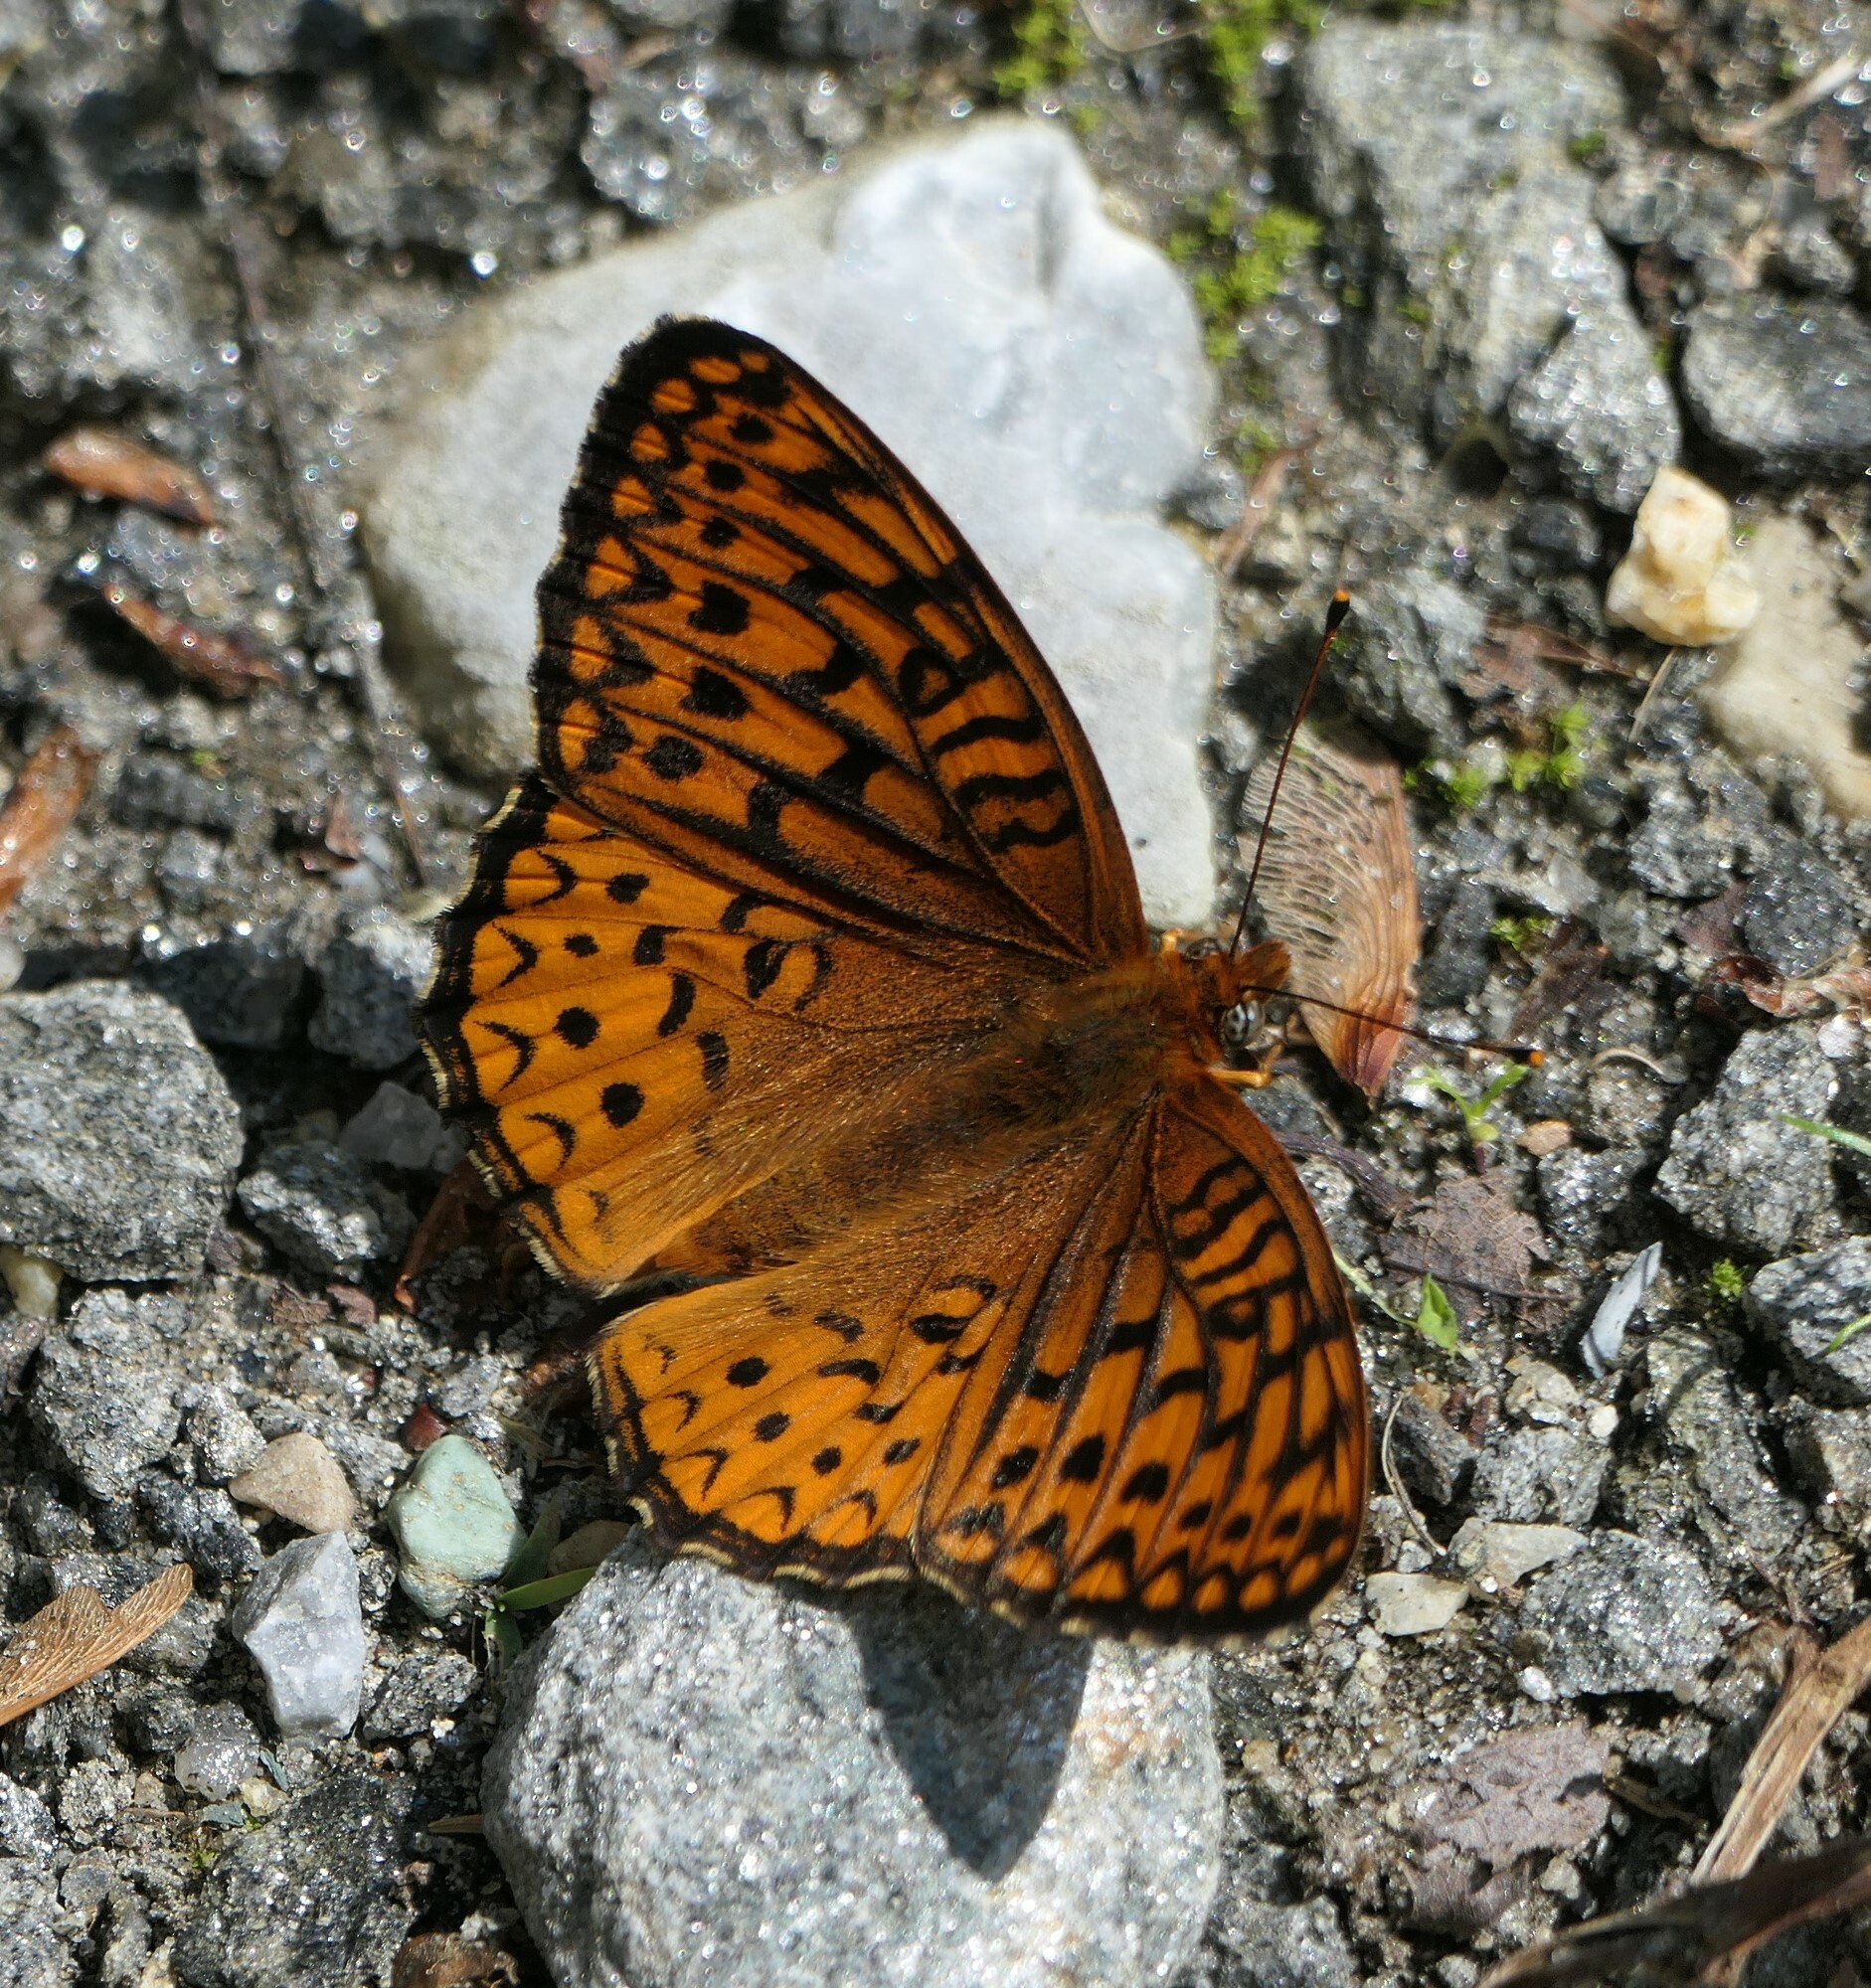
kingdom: Animalia
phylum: Arthropoda
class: Insecta
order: Lepidoptera
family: Nymphalidae
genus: Speyeria
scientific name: Speyeria atlantis
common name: Atlantis fritillary
